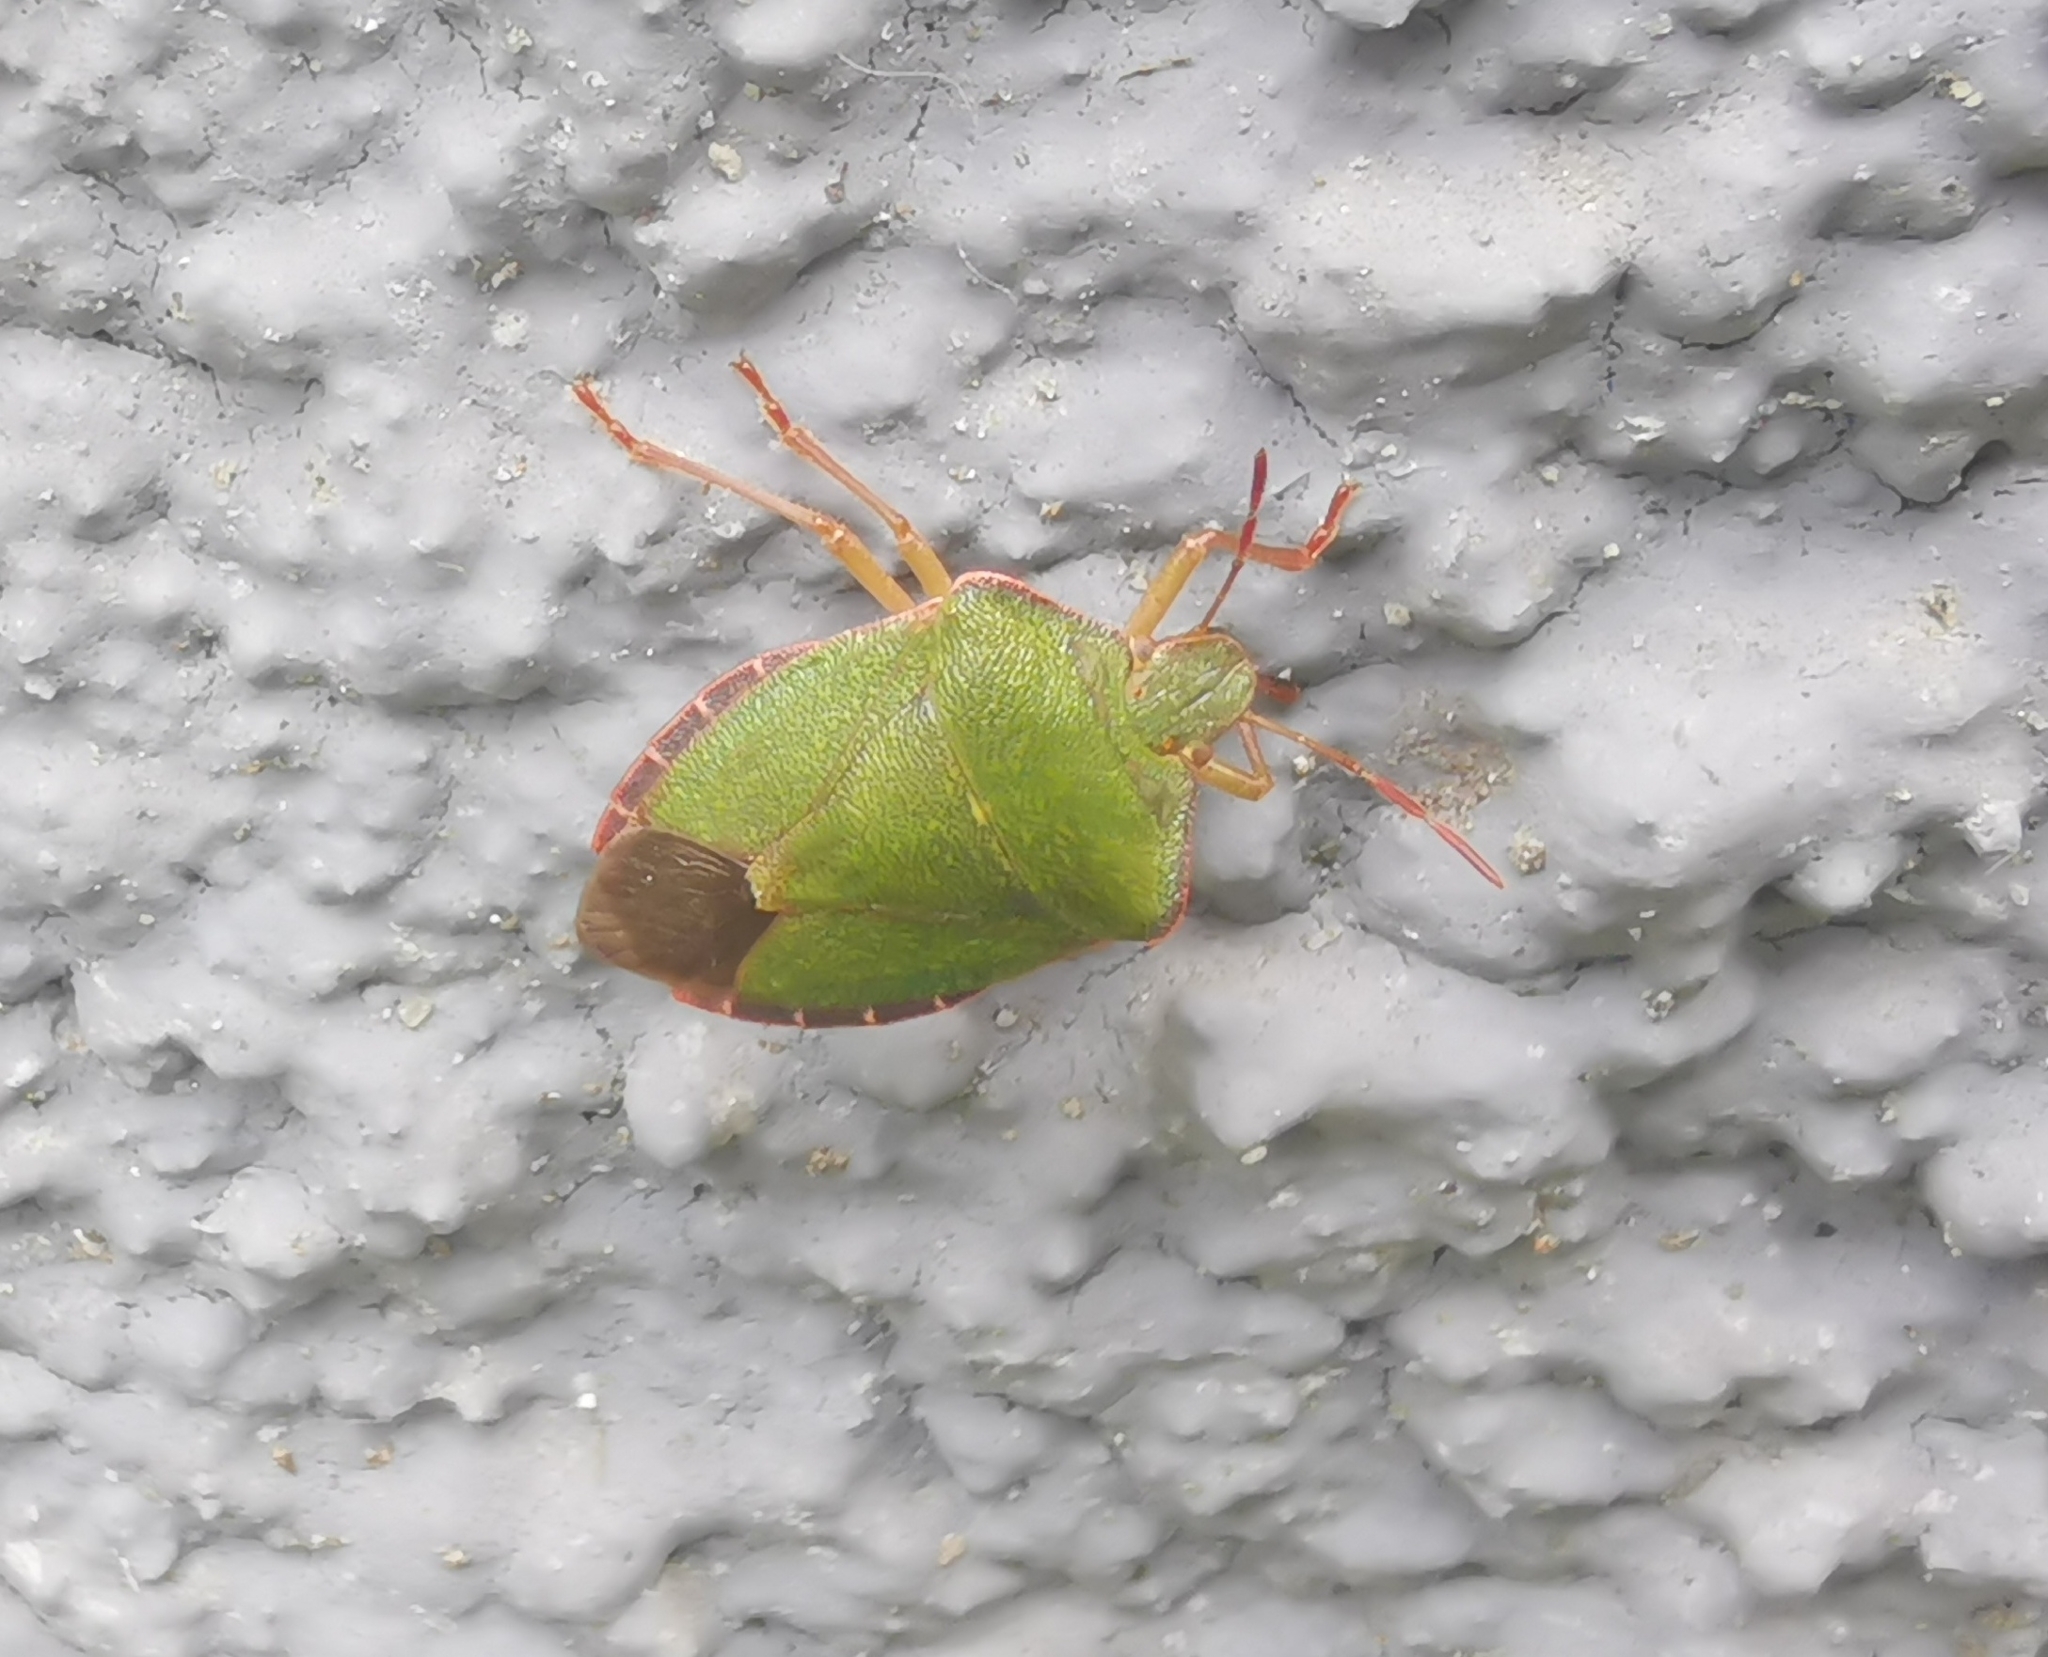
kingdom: Animalia
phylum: Arthropoda
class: Insecta
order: Hemiptera
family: Pentatomidae
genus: Palomena
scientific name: Palomena prasina
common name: Green shieldbug
